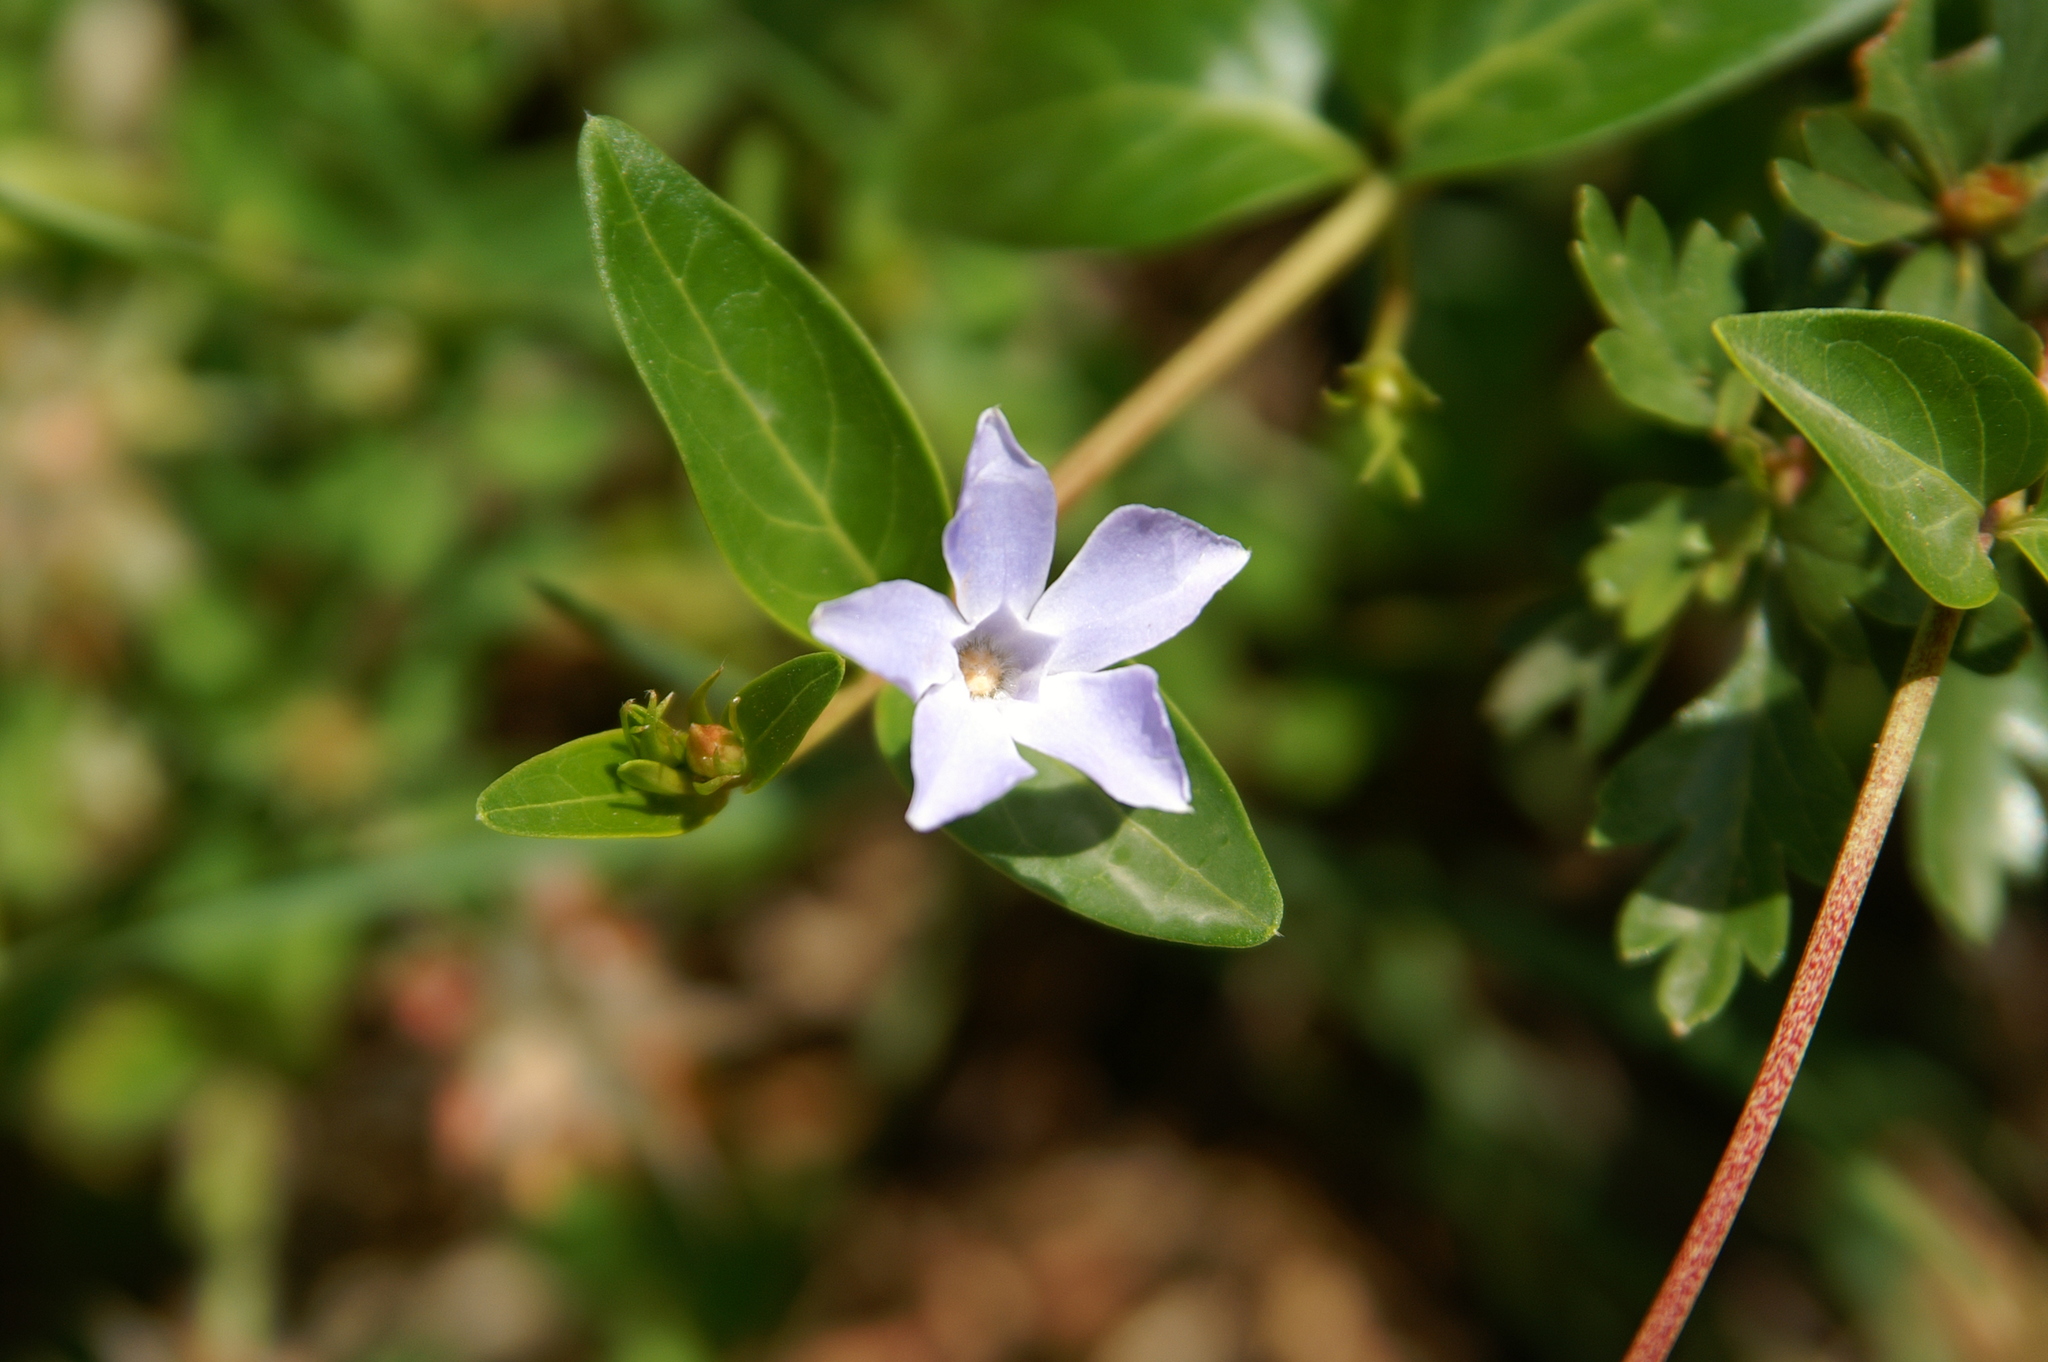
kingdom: Plantae
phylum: Tracheophyta
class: Magnoliopsida
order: Gentianales
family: Apocynaceae
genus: Vinca
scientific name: Vinca difformis
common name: Intermediate periwinkle
